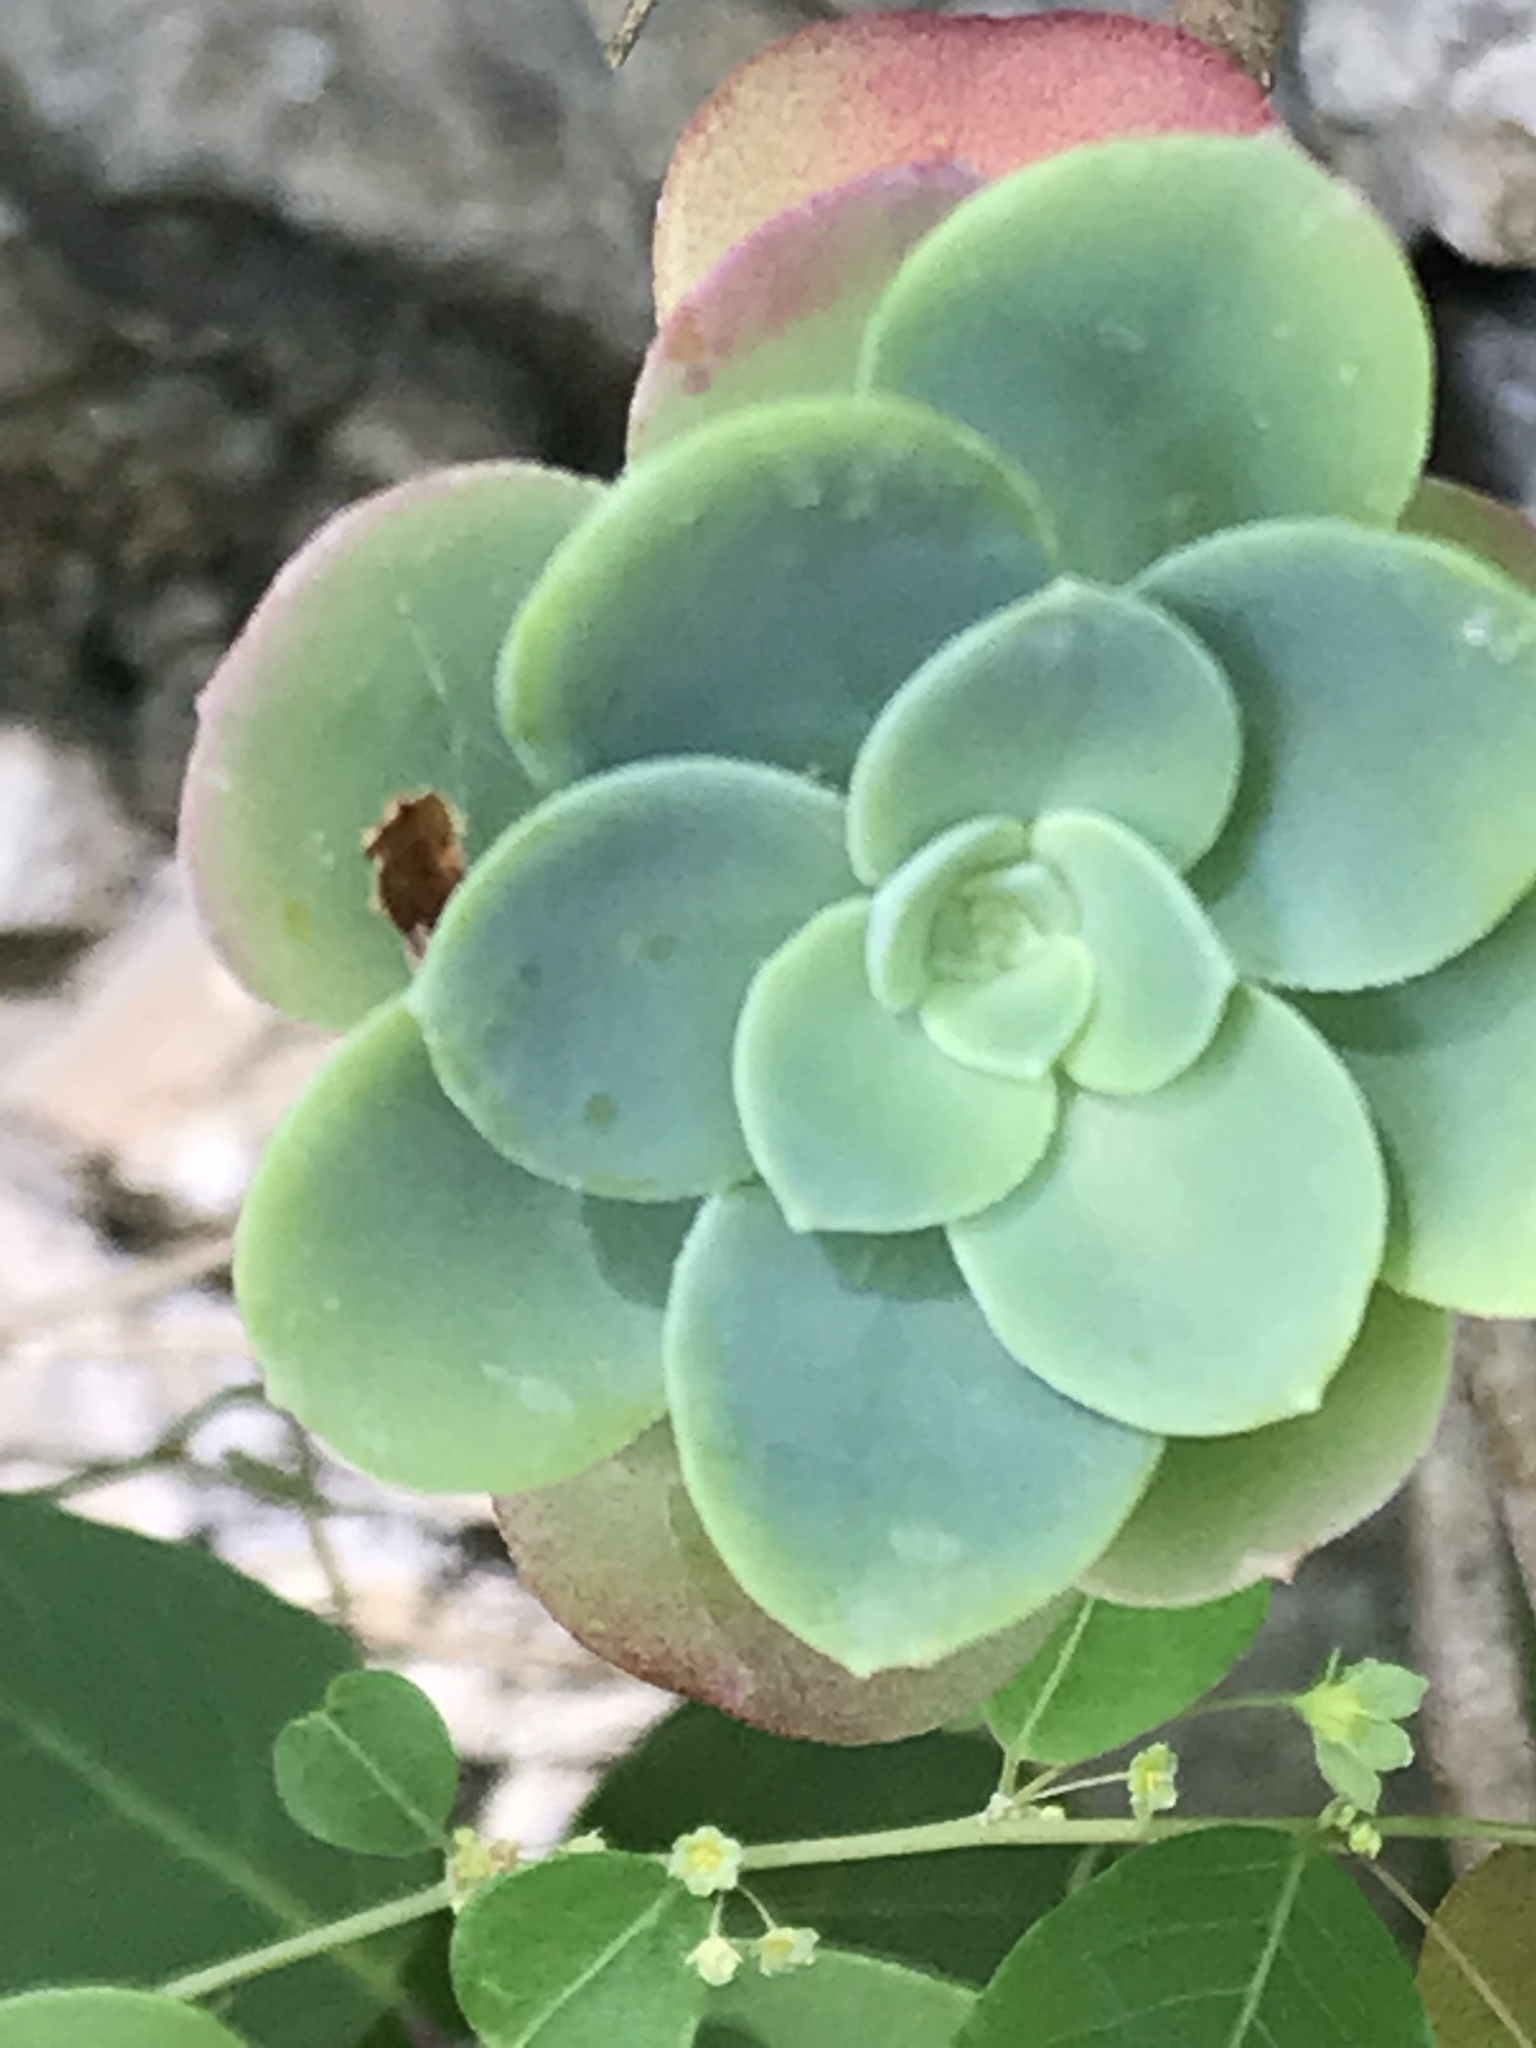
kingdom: Plantae
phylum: Tracheophyta
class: Magnoliopsida
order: Saxifragales
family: Crassulaceae
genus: Sedum
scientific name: Sedum palmeri
